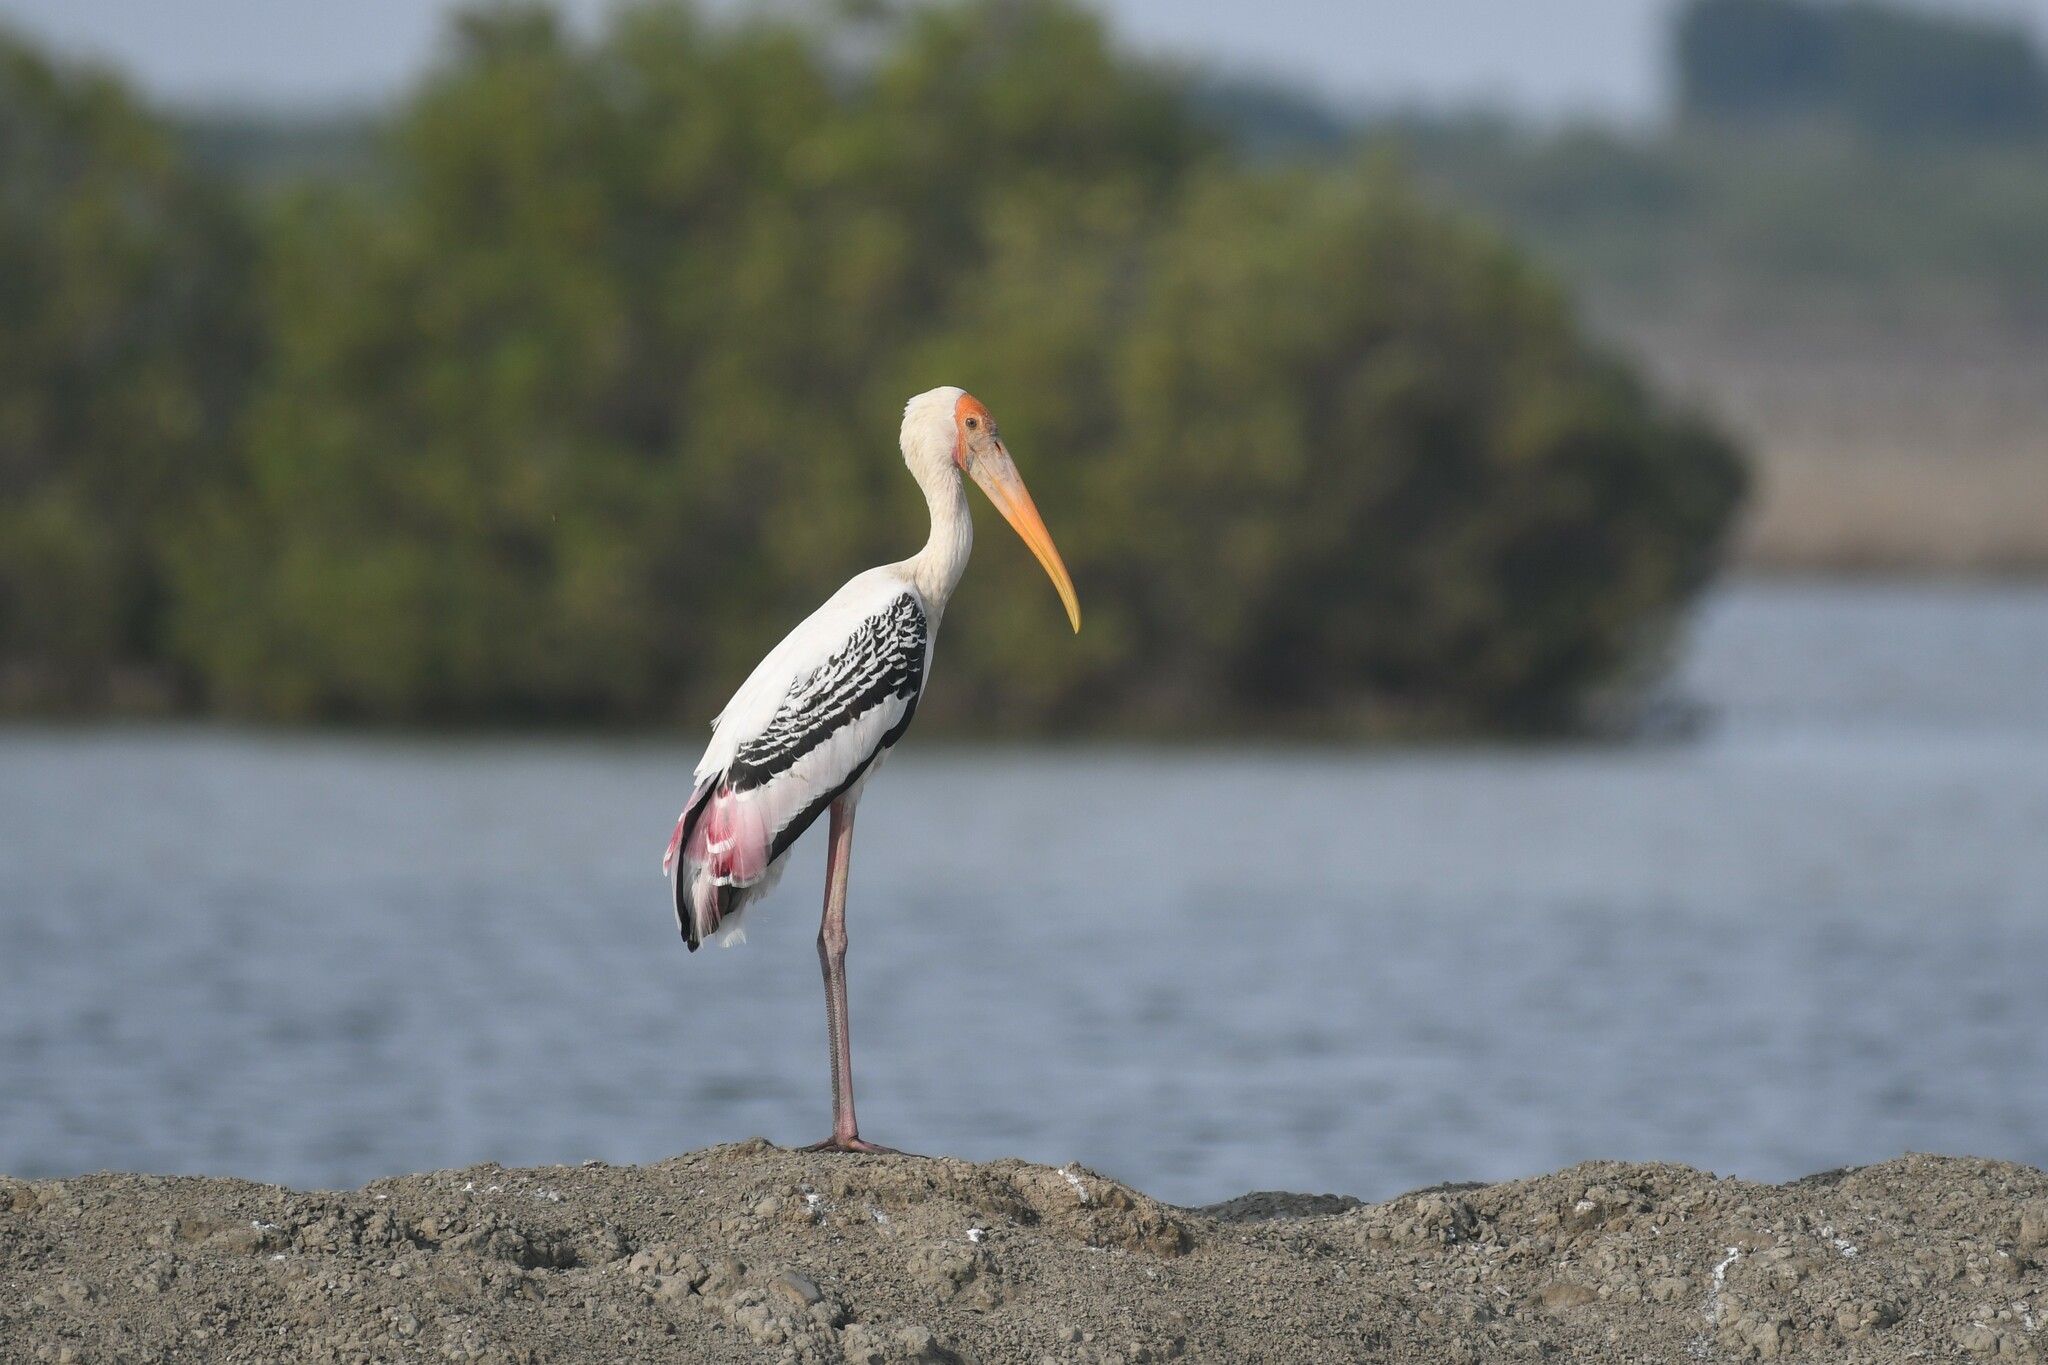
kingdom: Animalia
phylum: Chordata
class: Aves
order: Ciconiiformes
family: Ciconiidae
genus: Mycteria
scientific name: Mycteria leucocephala
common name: Painted stork
